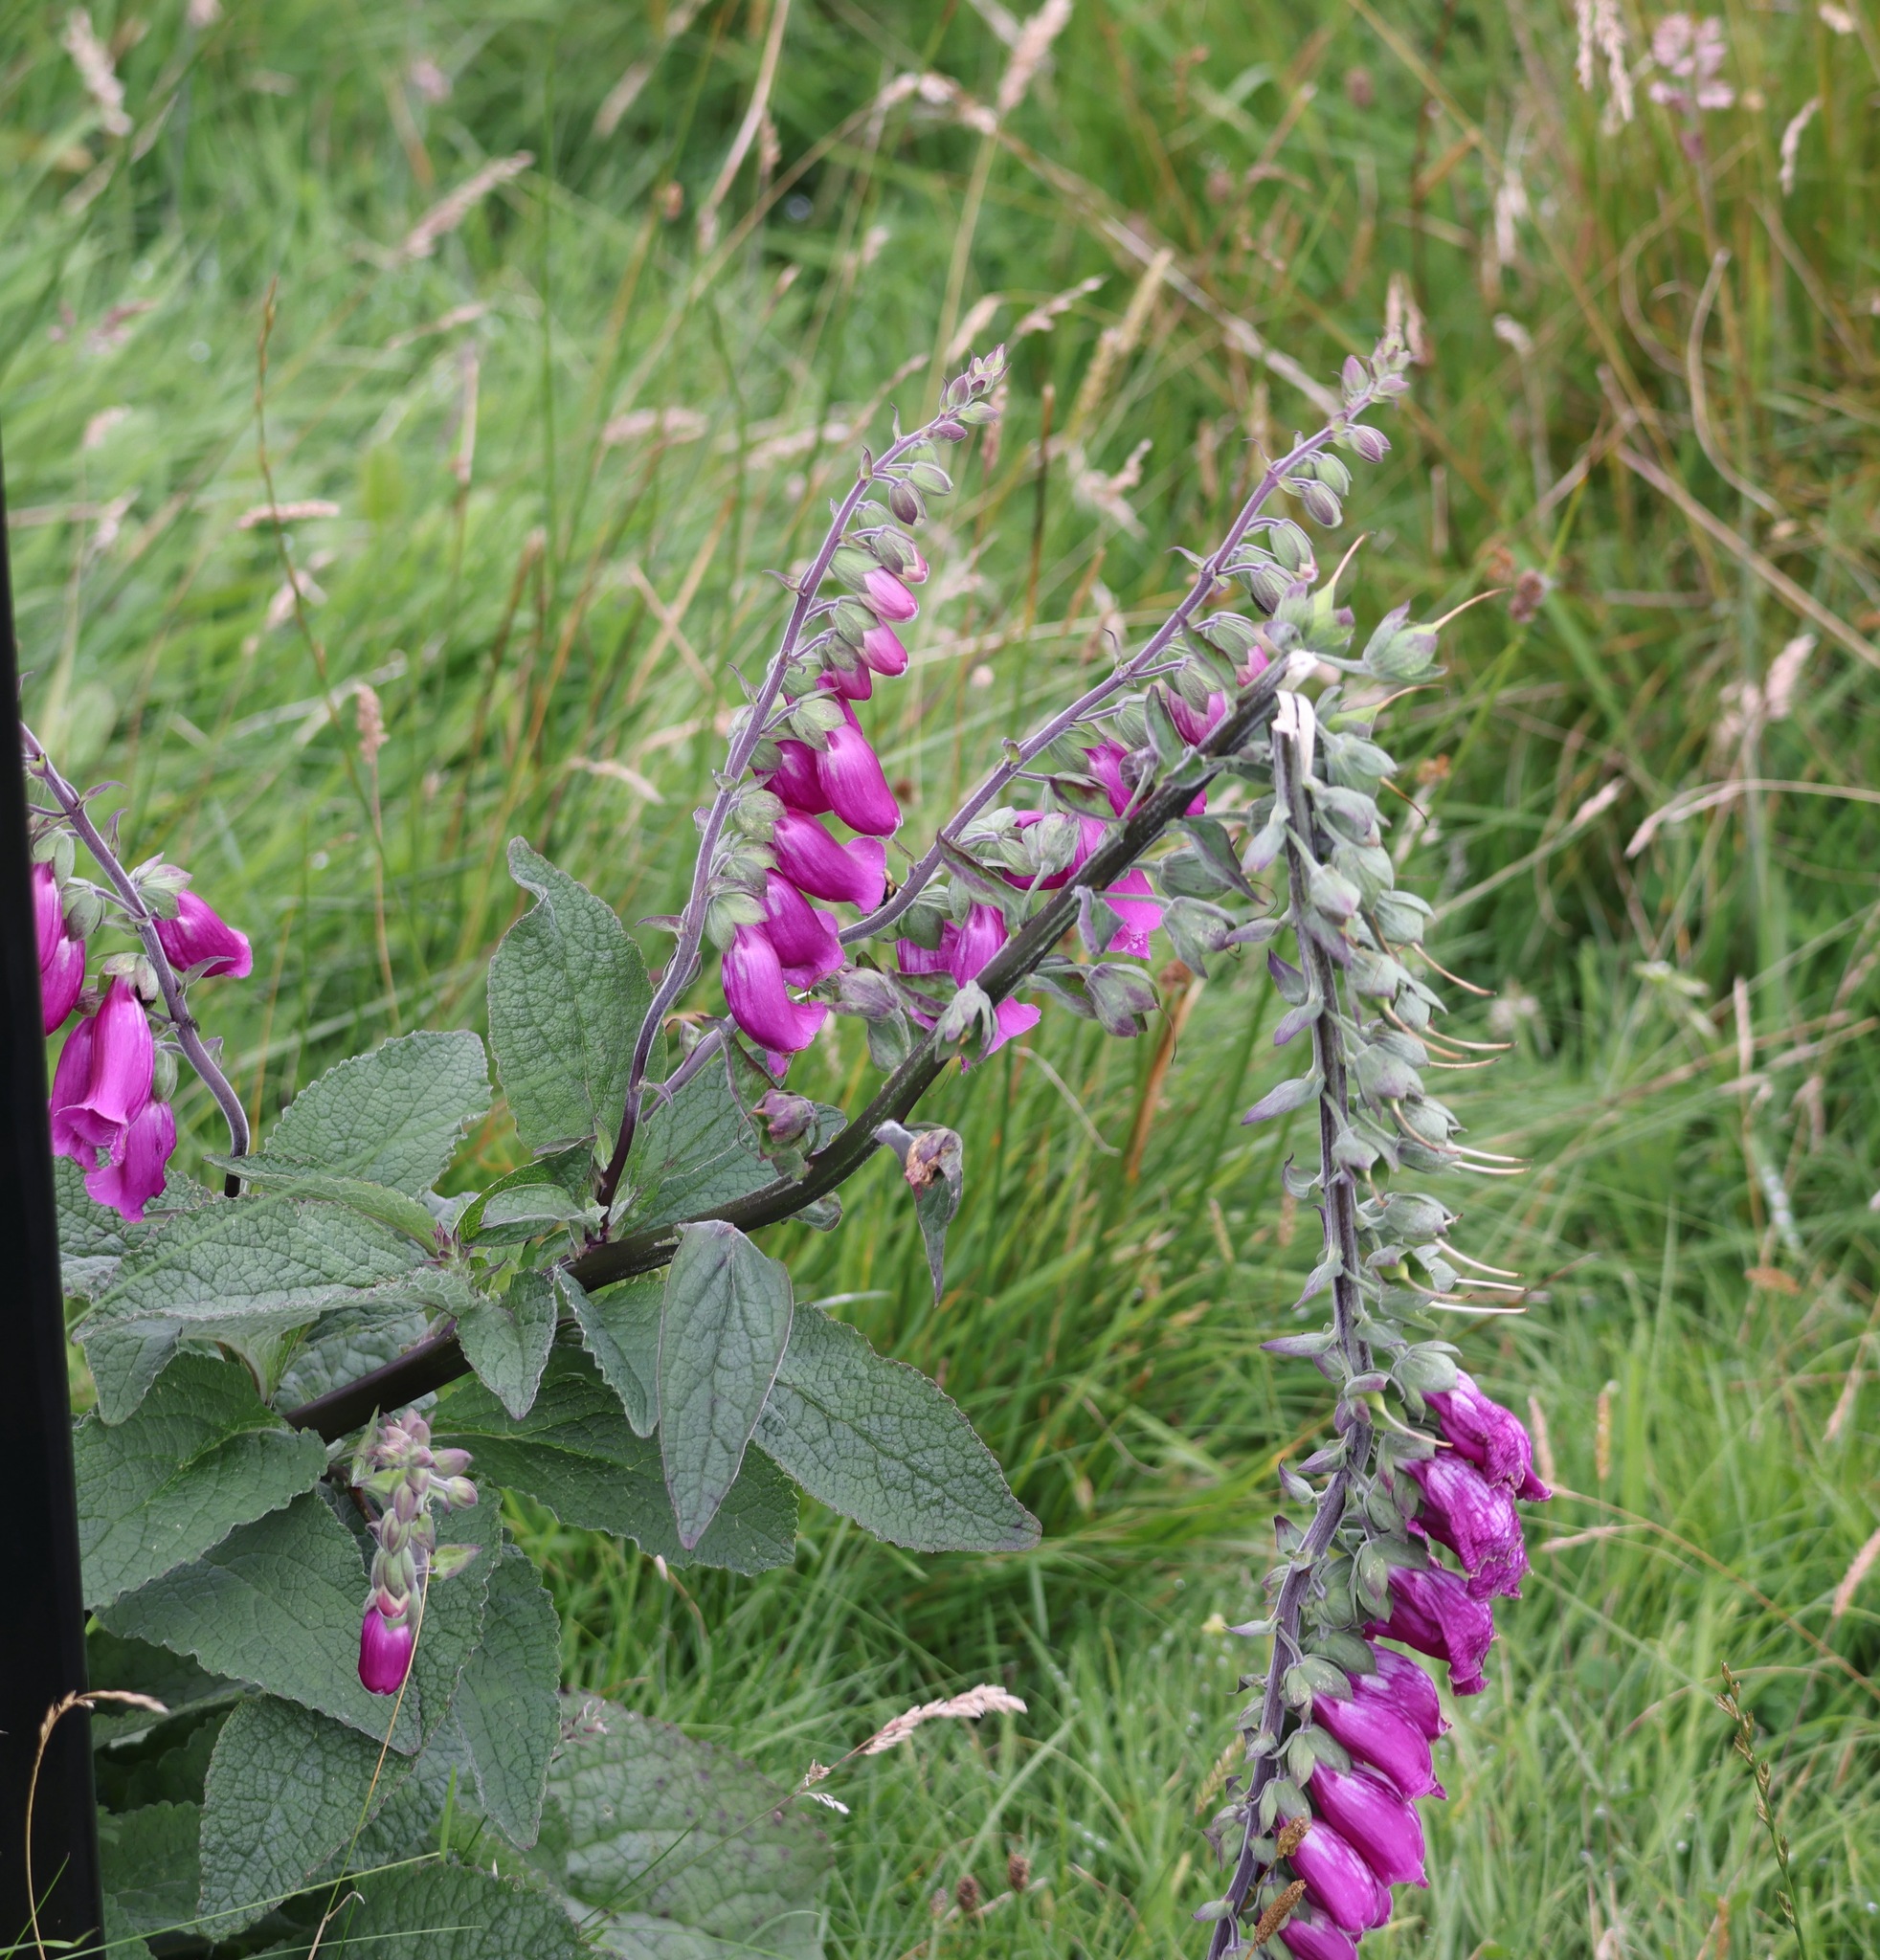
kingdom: Plantae
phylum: Tracheophyta
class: Magnoliopsida
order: Lamiales
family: Plantaginaceae
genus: Digitalis
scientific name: Digitalis purpurea
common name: Foxglove
